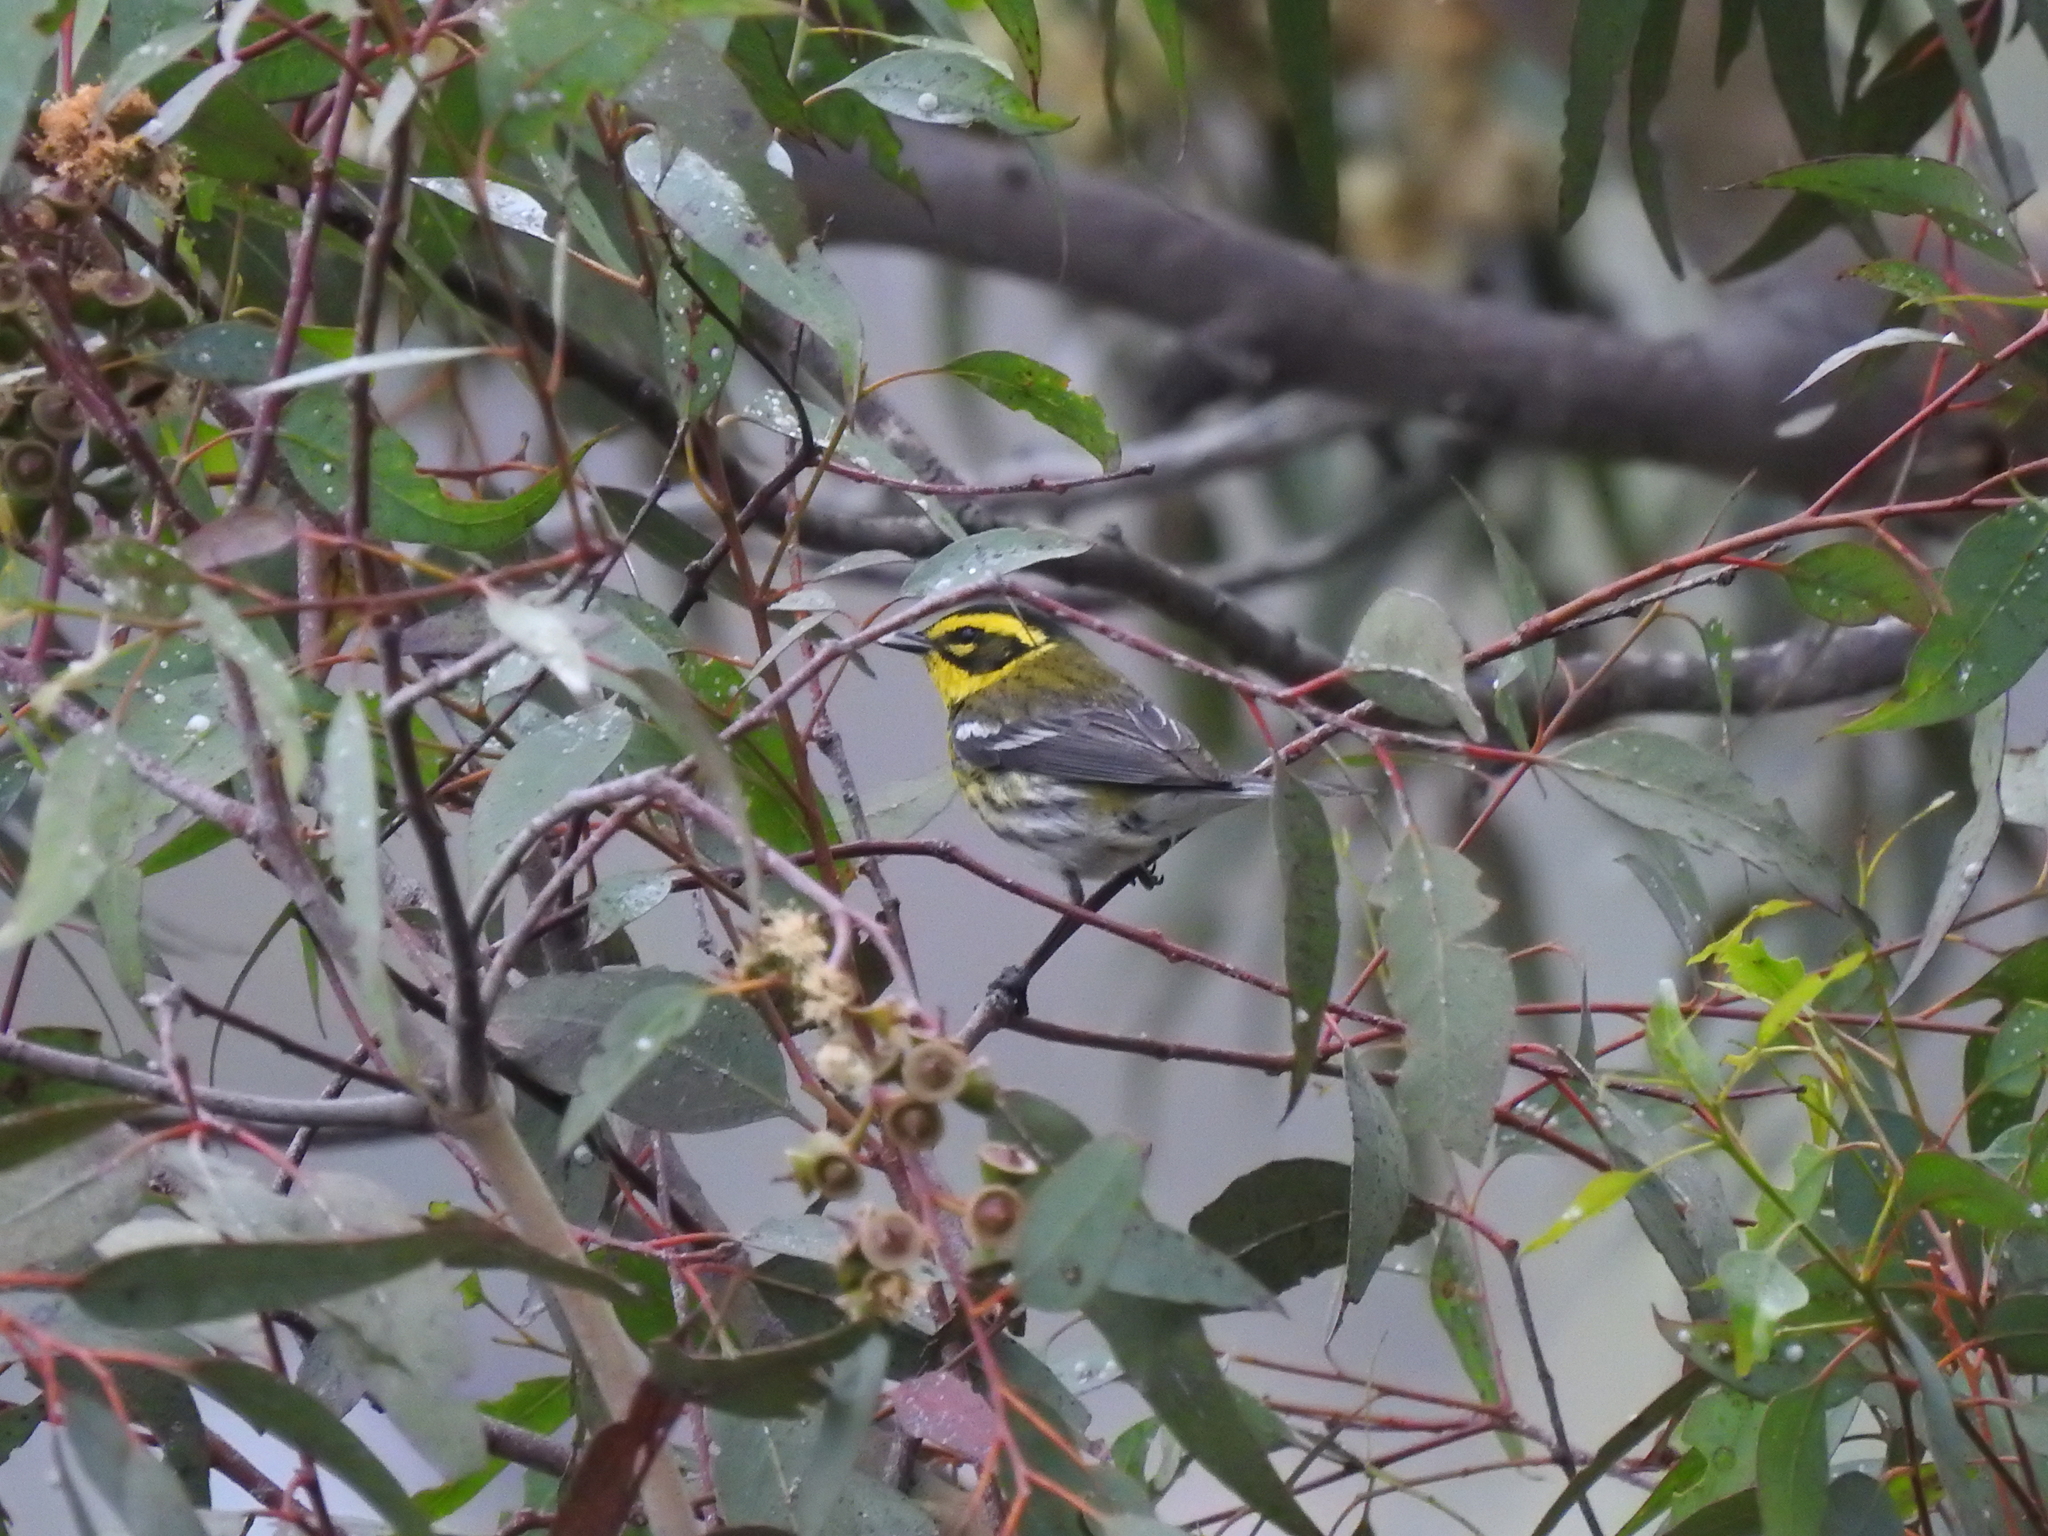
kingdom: Animalia
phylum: Chordata
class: Aves
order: Passeriformes
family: Parulidae
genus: Setophaga
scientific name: Setophaga townsendi
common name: Townsend's warbler
